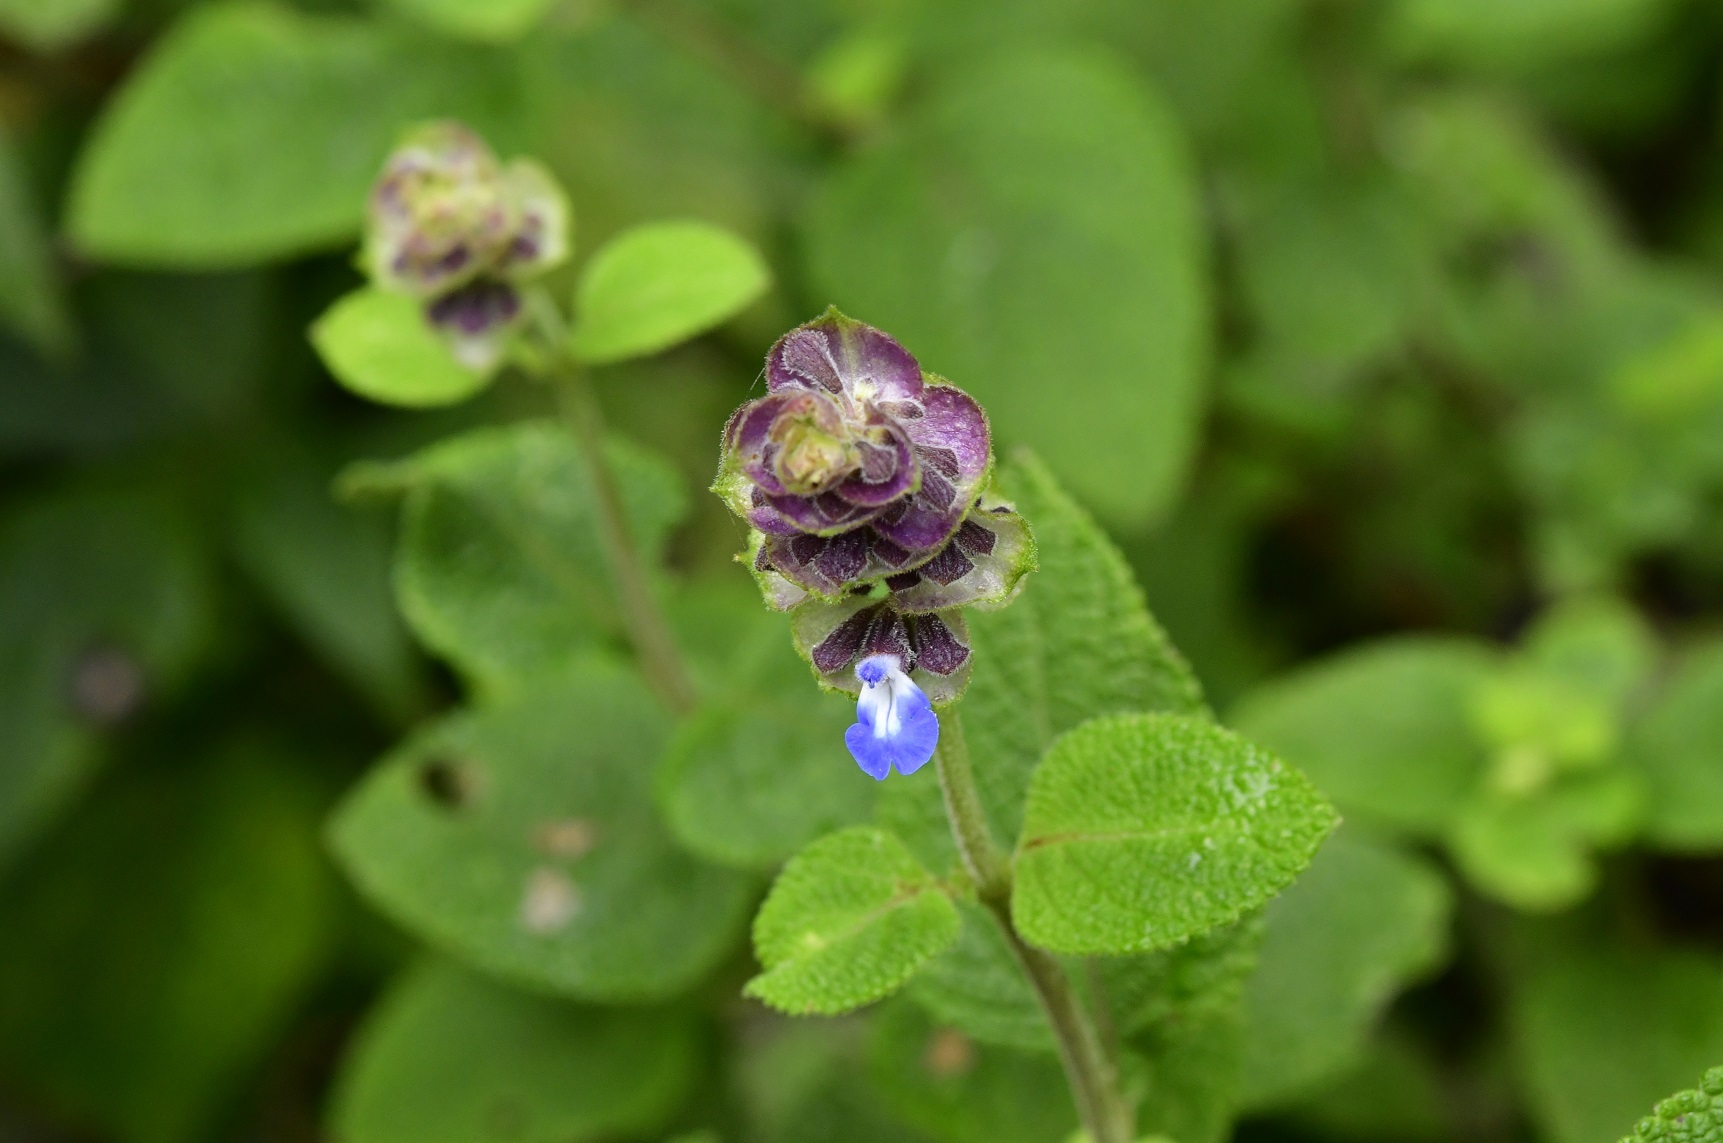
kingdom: Plantae
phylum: Tracheophyta
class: Magnoliopsida
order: Lamiales
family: Lamiaceae
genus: Salvia
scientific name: Salvia mocinoi
